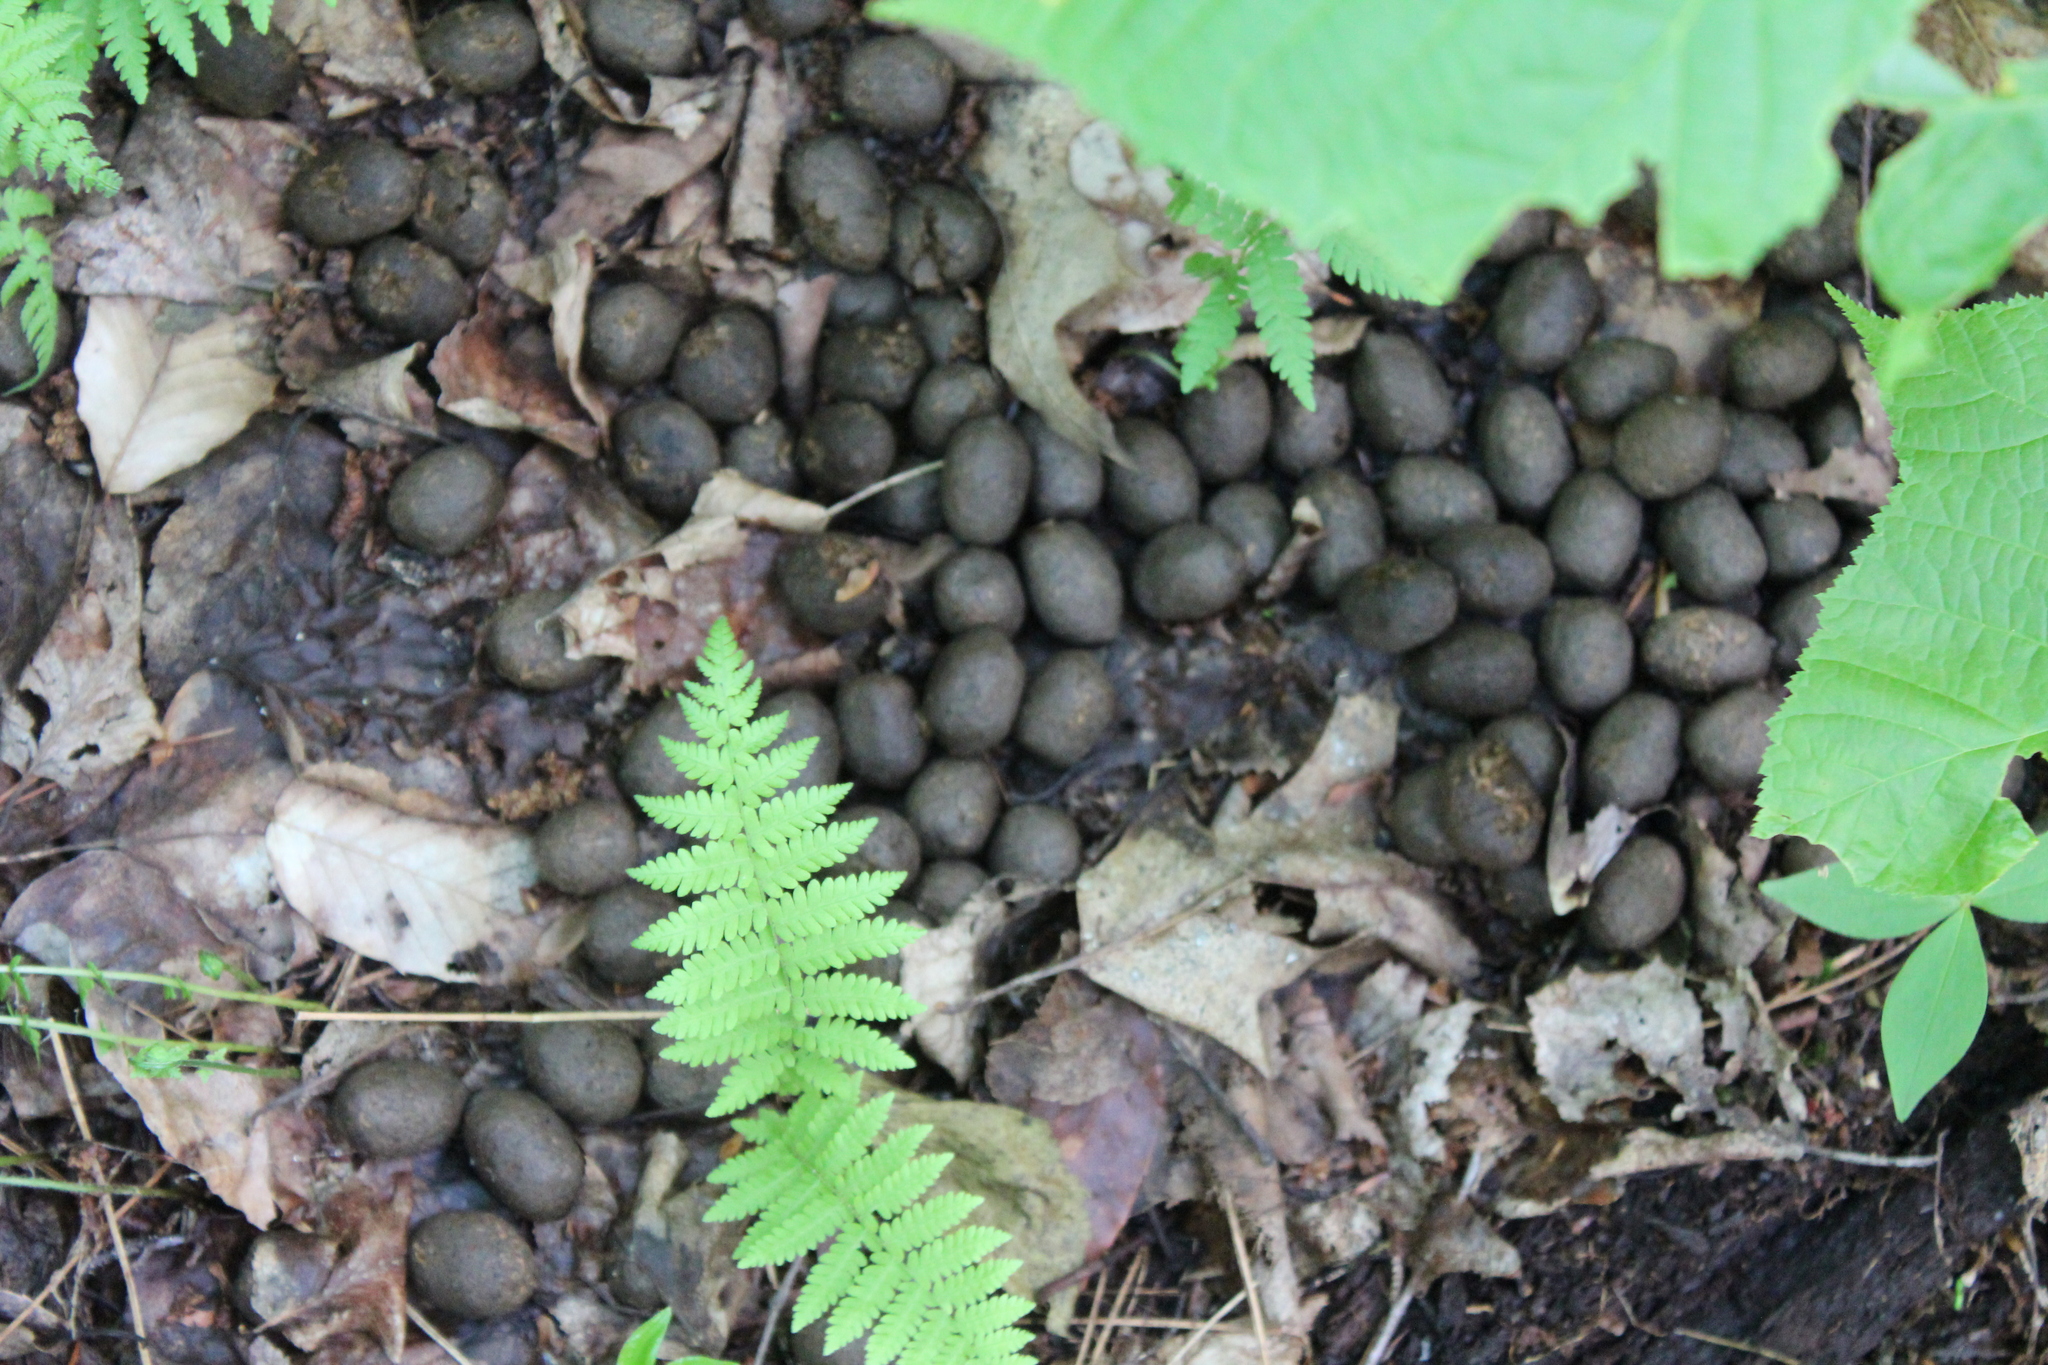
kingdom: Animalia
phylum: Chordata
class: Mammalia
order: Artiodactyla
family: Cervidae
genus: Alces
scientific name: Alces alces
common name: Moose
